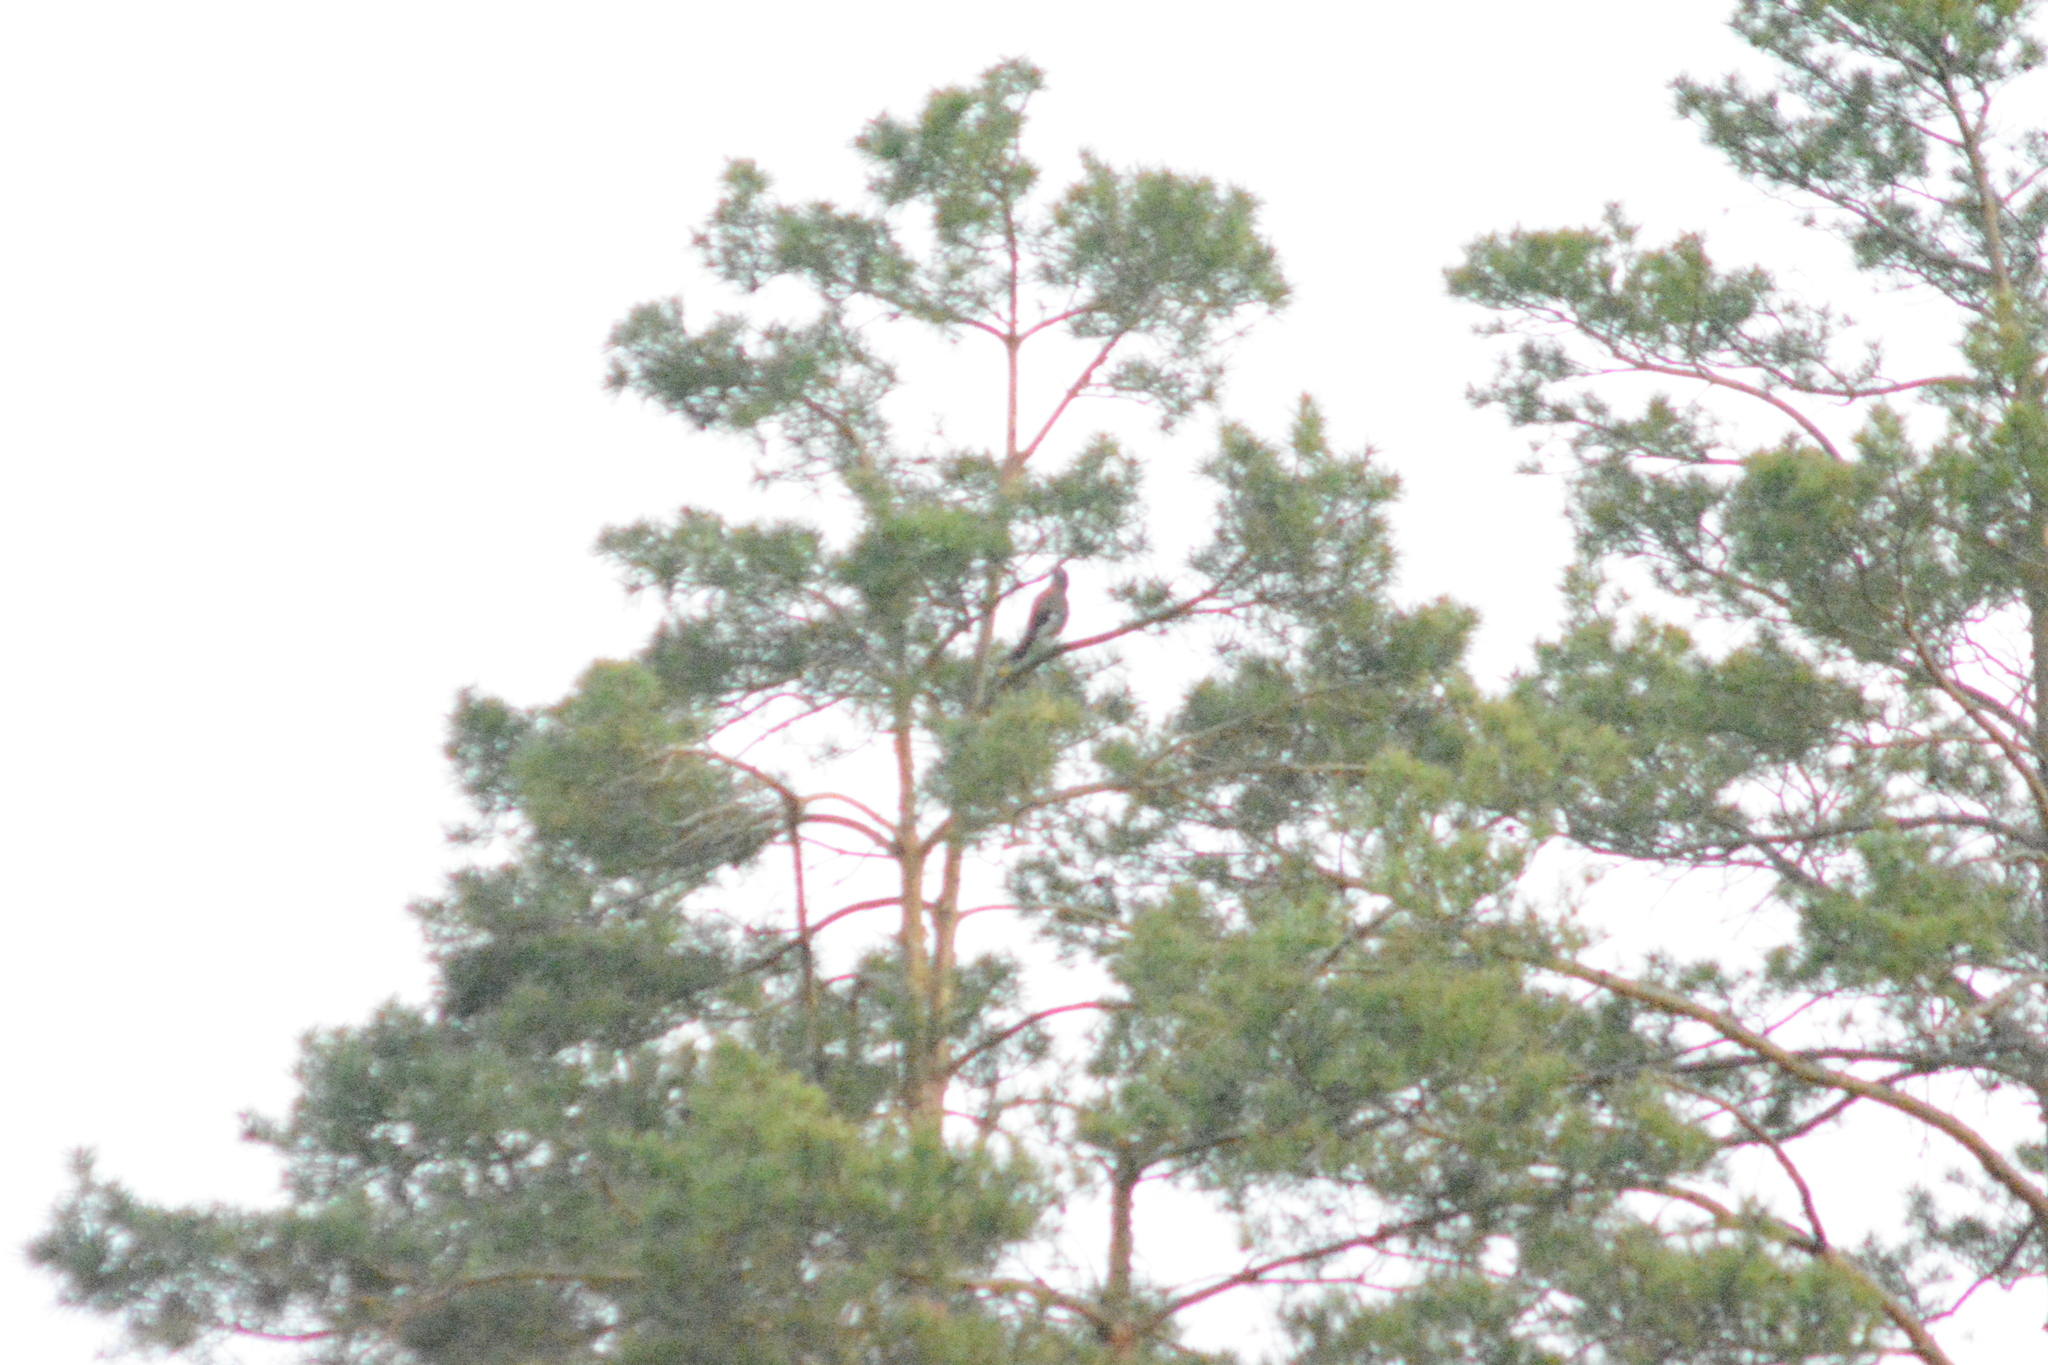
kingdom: Animalia
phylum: Chordata
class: Aves
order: Passeriformes
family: Corvidae
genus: Garrulus
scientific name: Garrulus glandarius
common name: Eurasian jay
